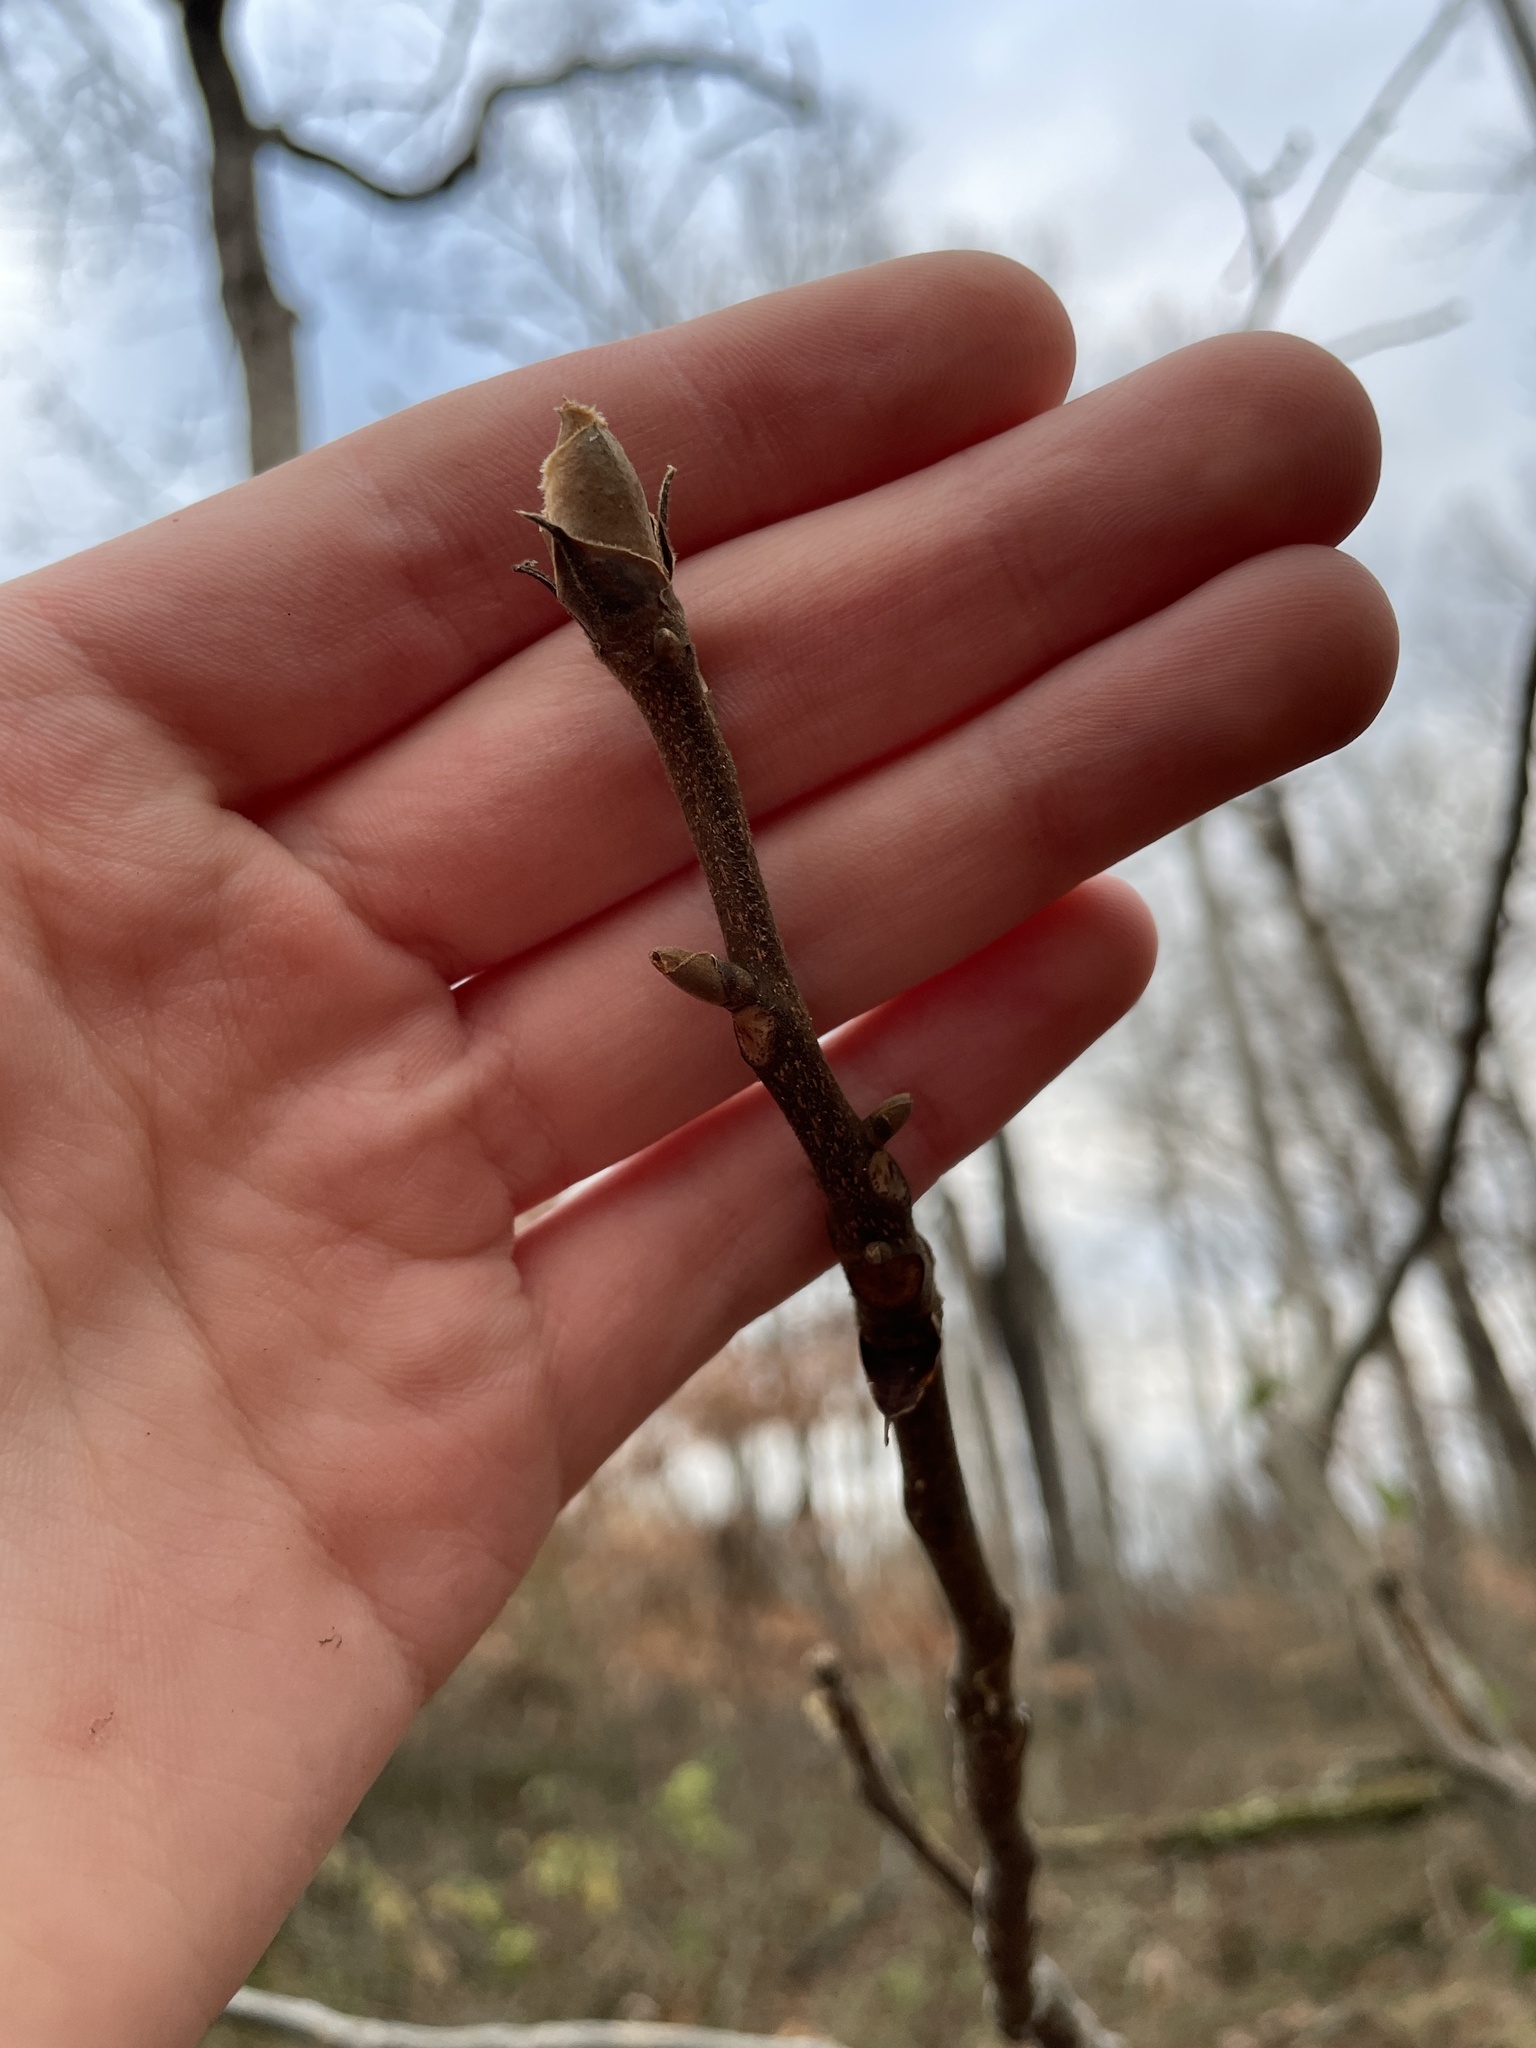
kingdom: Plantae
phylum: Tracheophyta
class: Magnoliopsida
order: Fagales
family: Juglandaceae
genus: Carya
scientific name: Carya ovata
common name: Shagbark hickory
